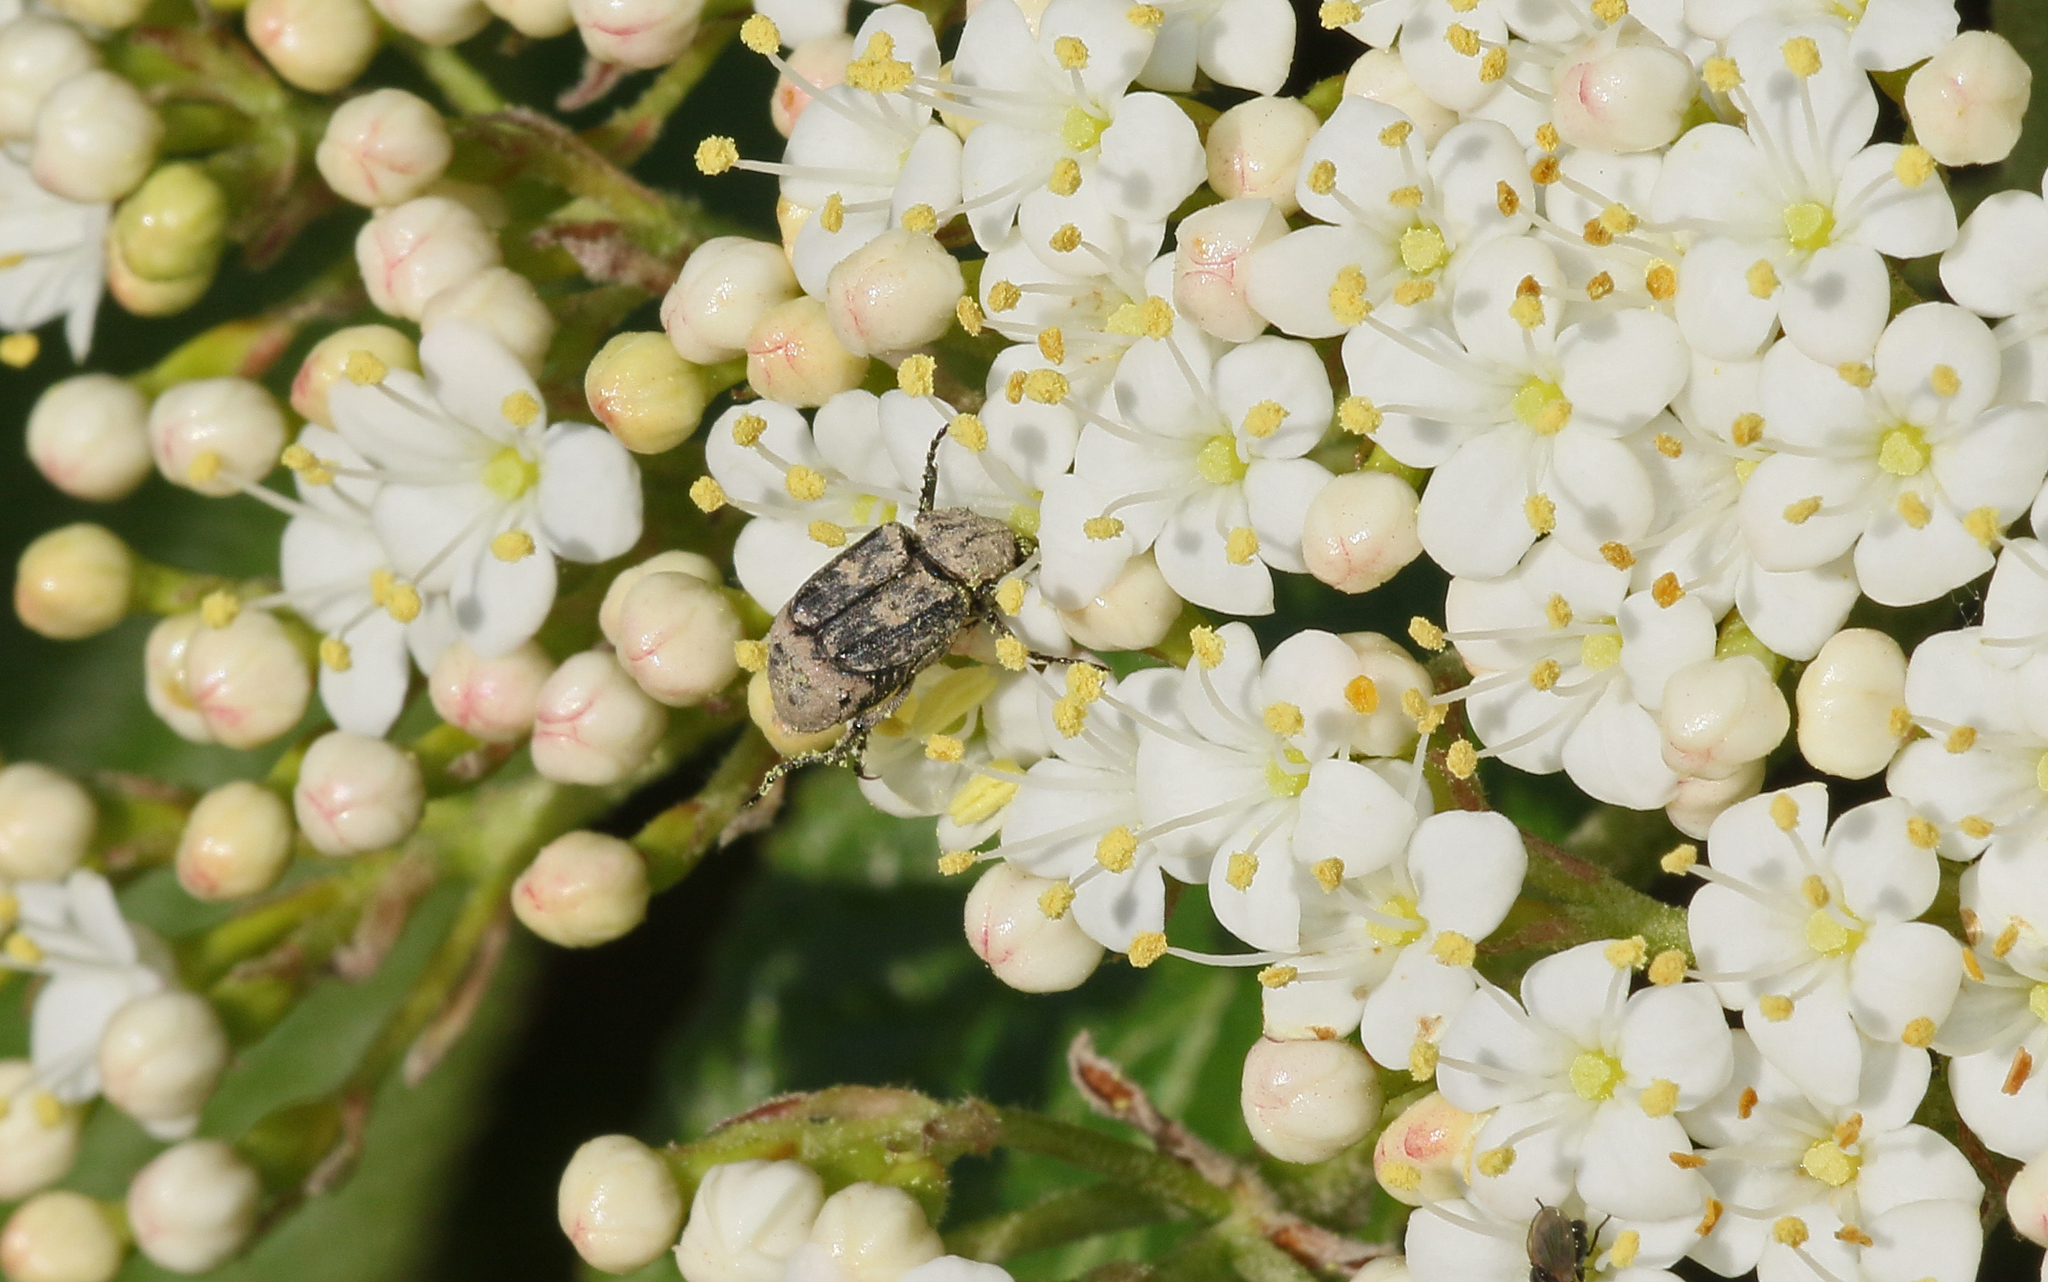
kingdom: Animalia
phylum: Arthropoda
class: Insecta
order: Coleoptera
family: Scarabaeidae
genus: Valgus
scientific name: Valgus hemipterus
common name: Bug flower chafer
